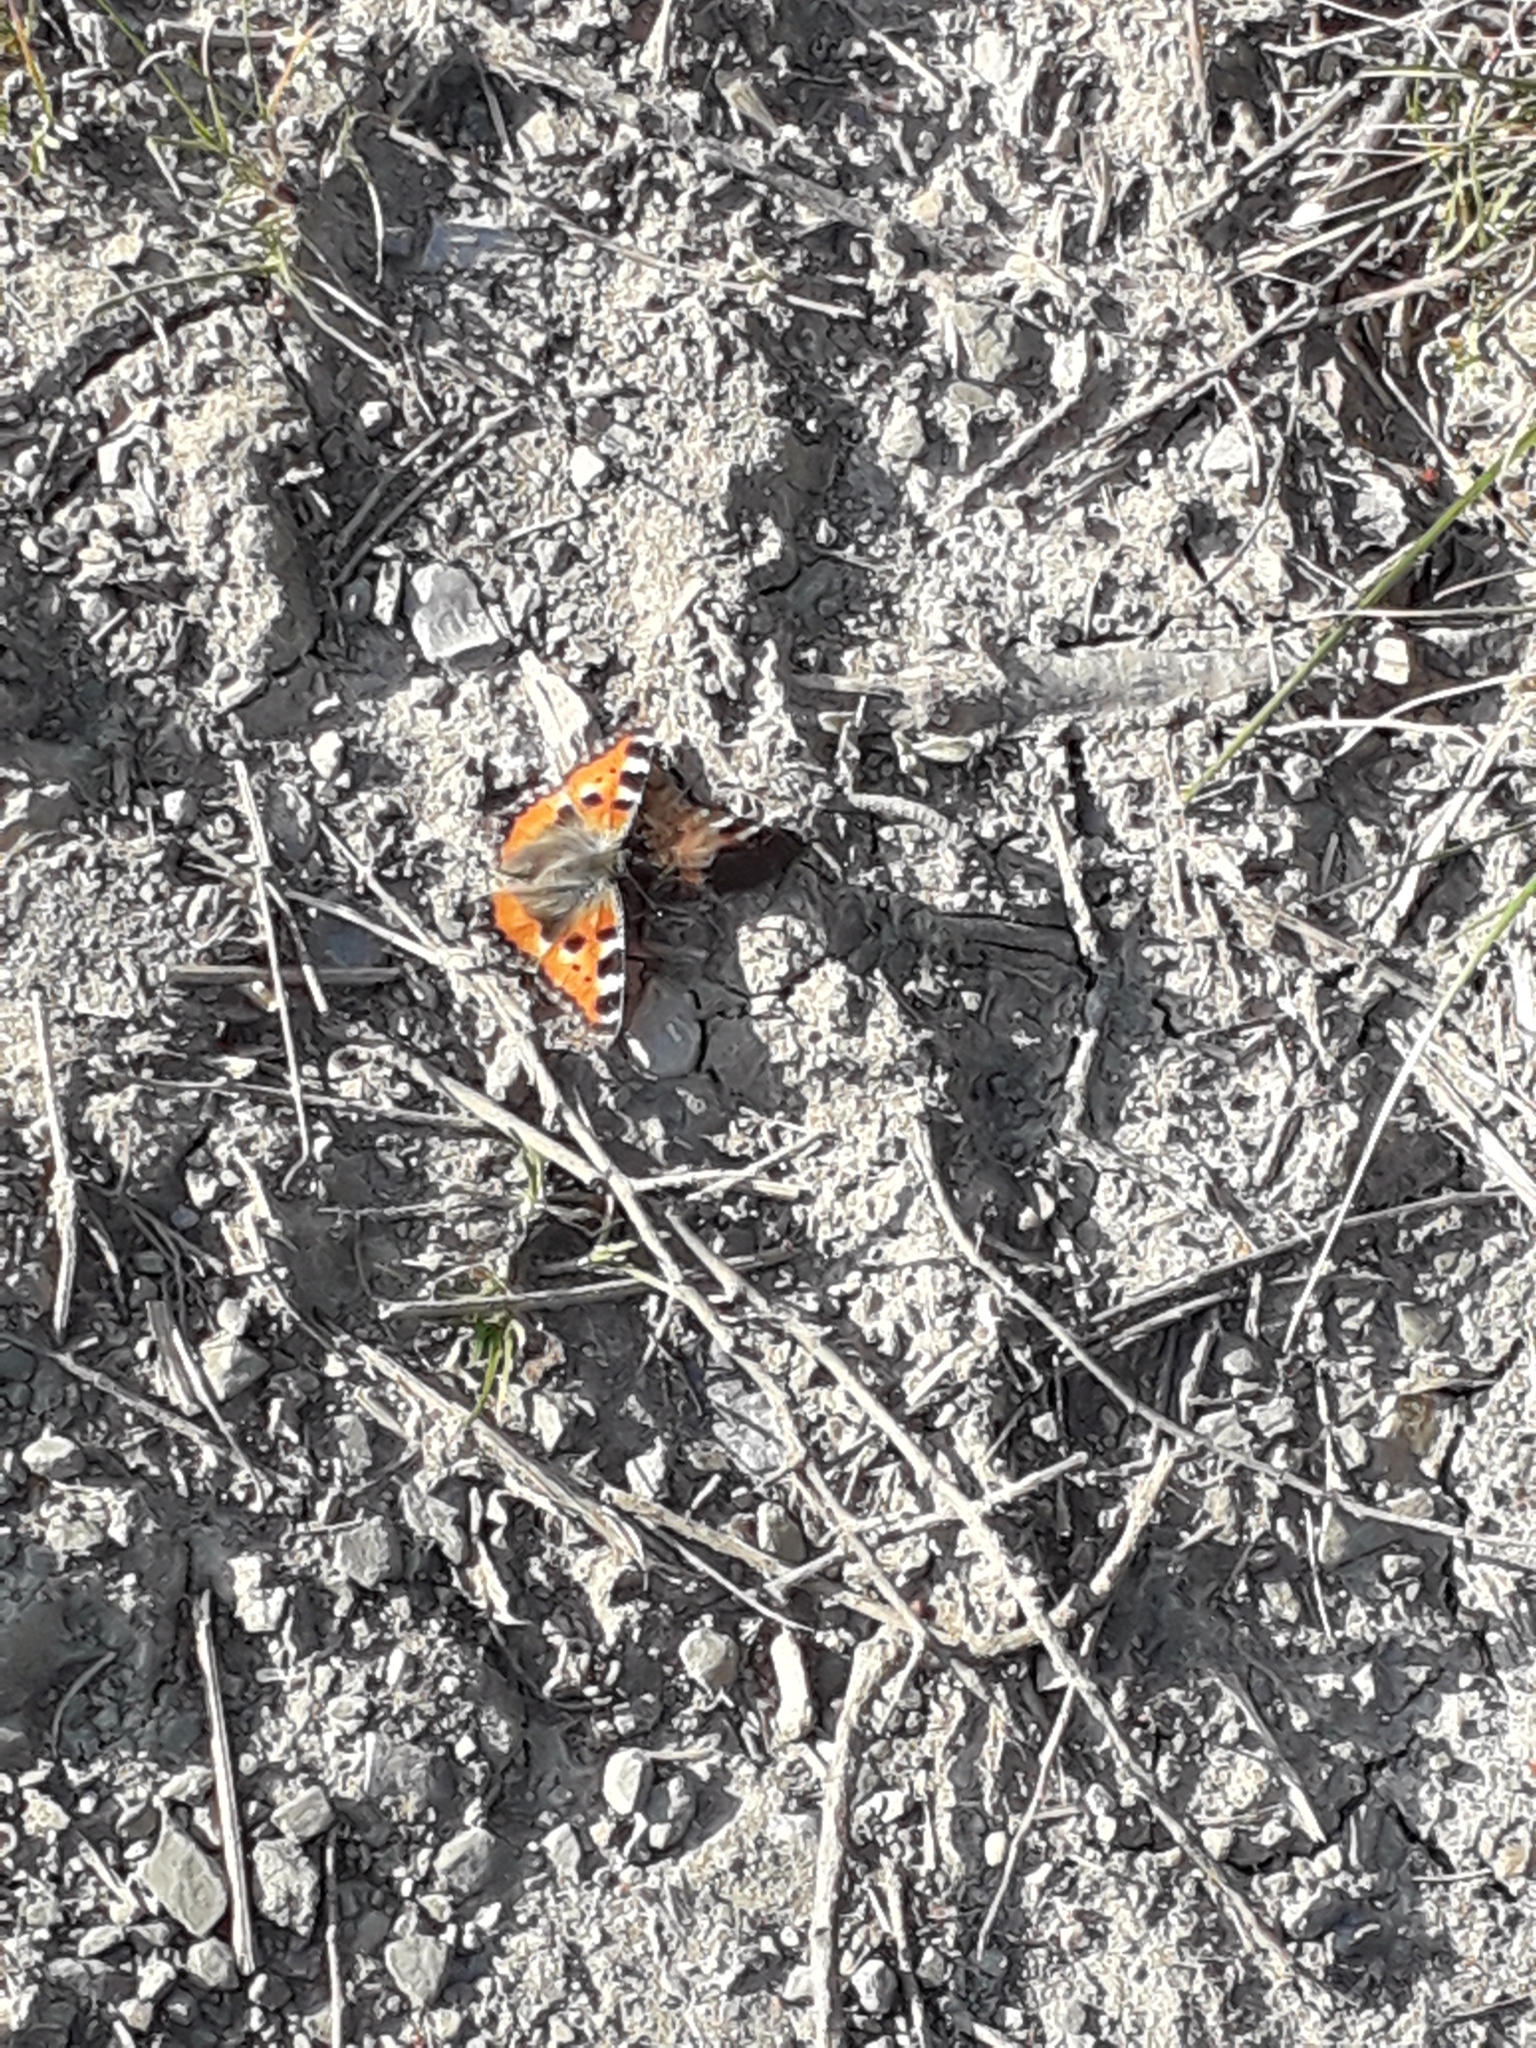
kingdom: Animalia
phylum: Arthropoda
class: Insecta
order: Lepidoptera
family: Nymphalidae
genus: Aglais
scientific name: Aglais urticae
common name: Small tortoiseshell
